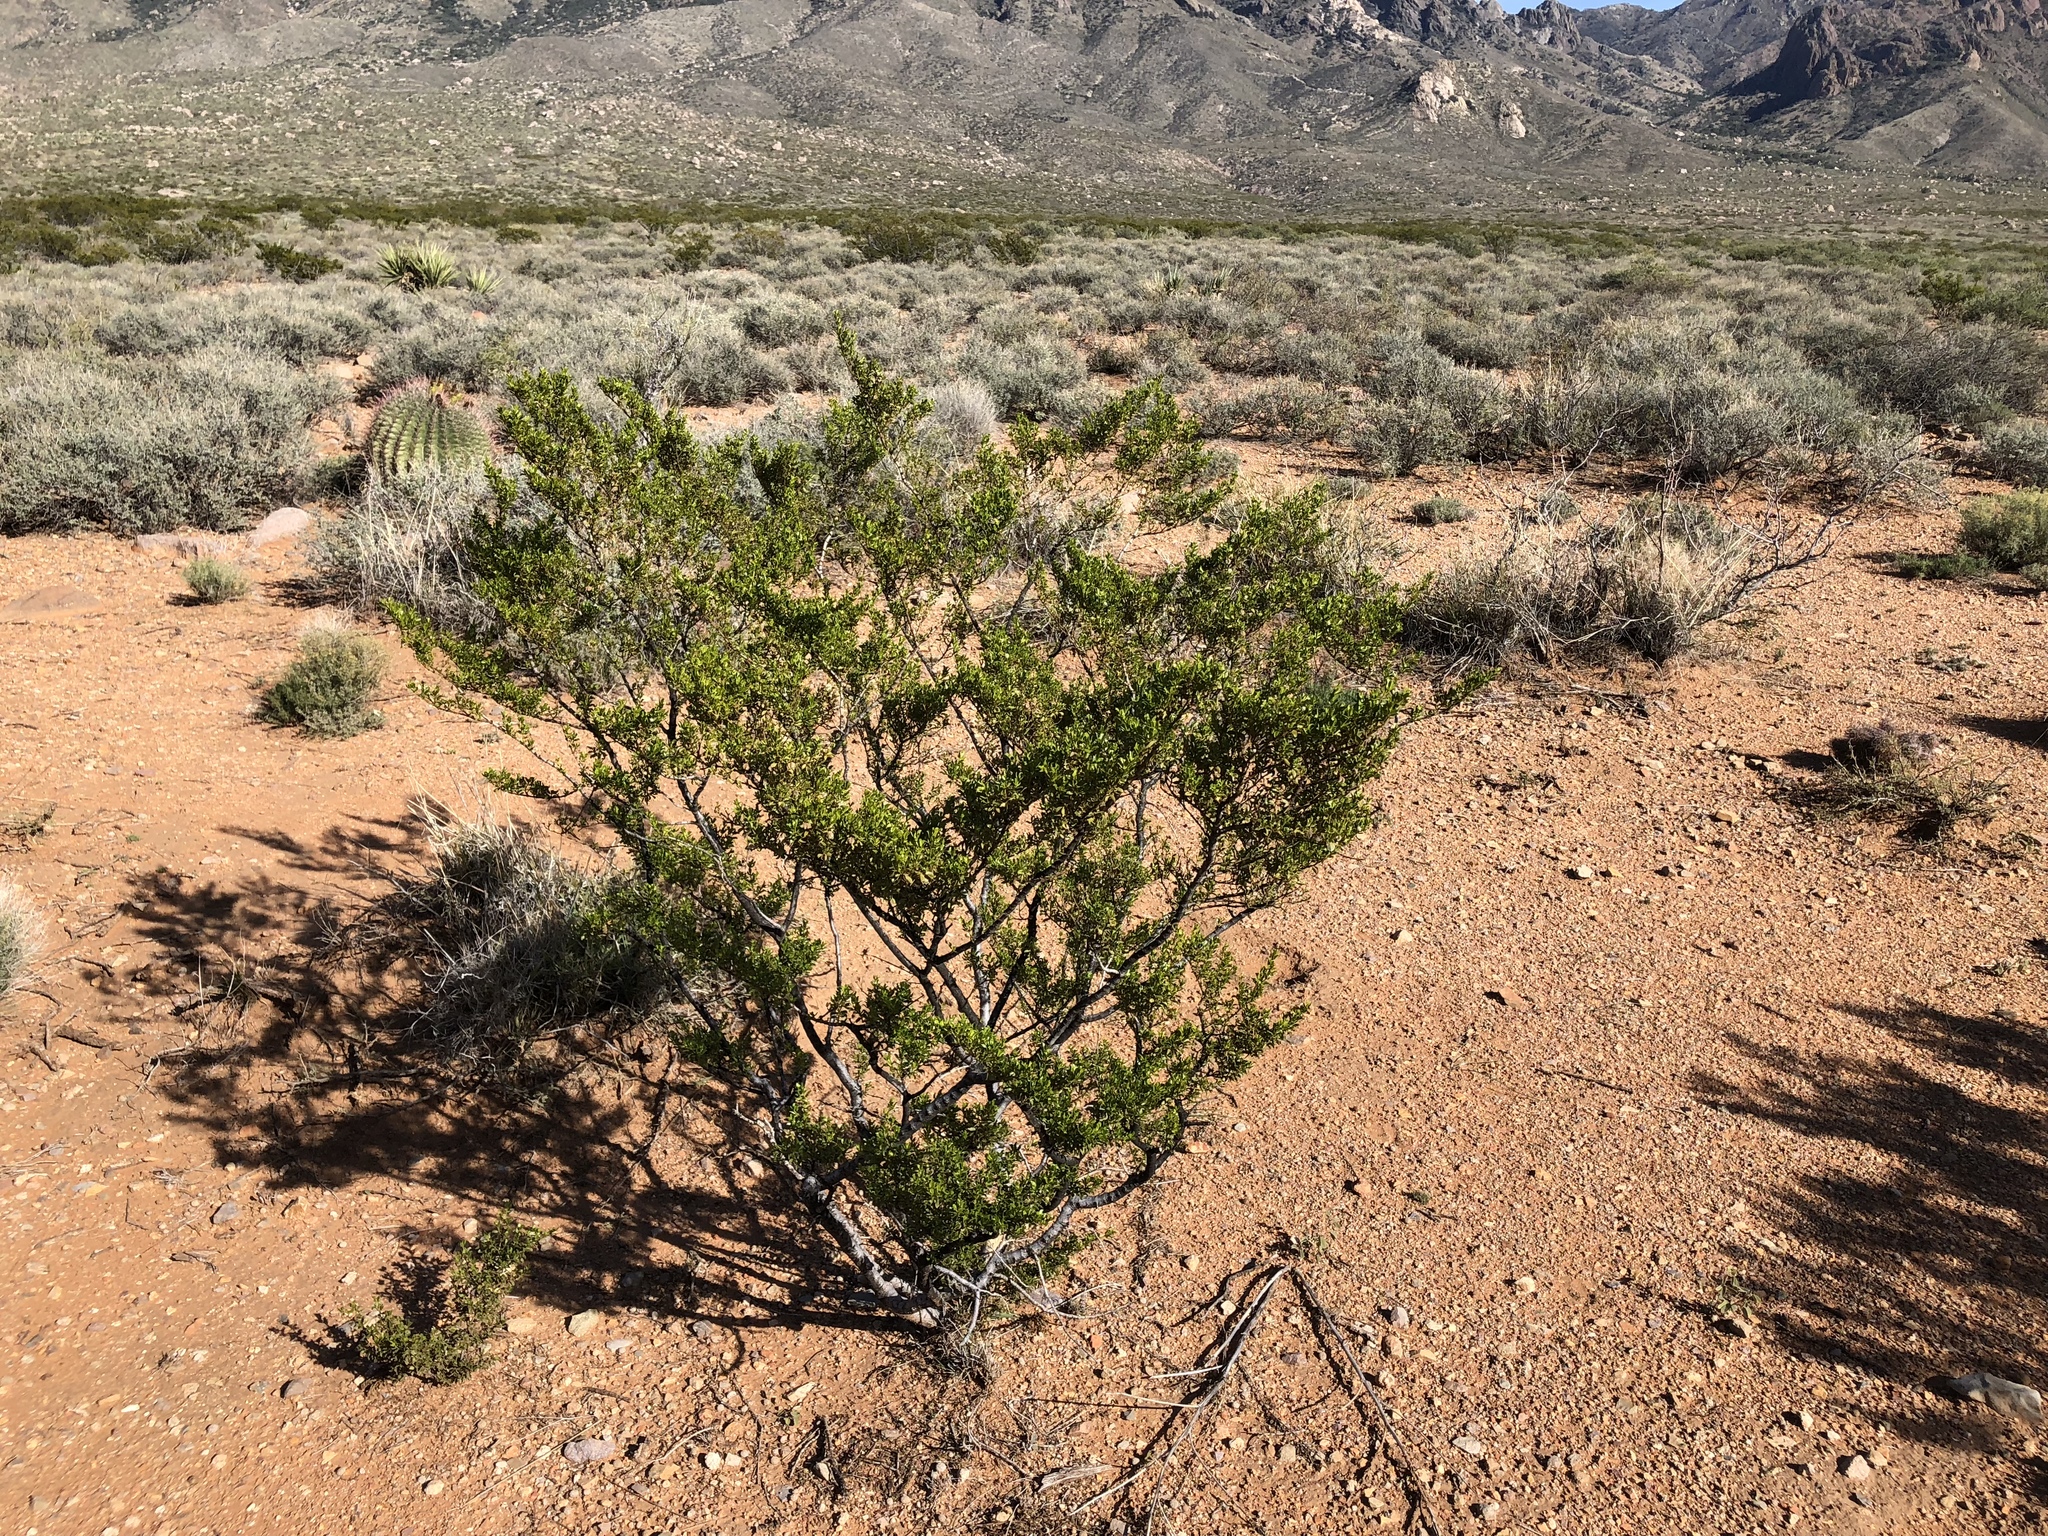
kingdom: Plantae
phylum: Tracheophyta
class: Magnoliopsida
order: Zygophyllales
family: Zygophyllaceae
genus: Larrea
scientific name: Larrea tridentata
